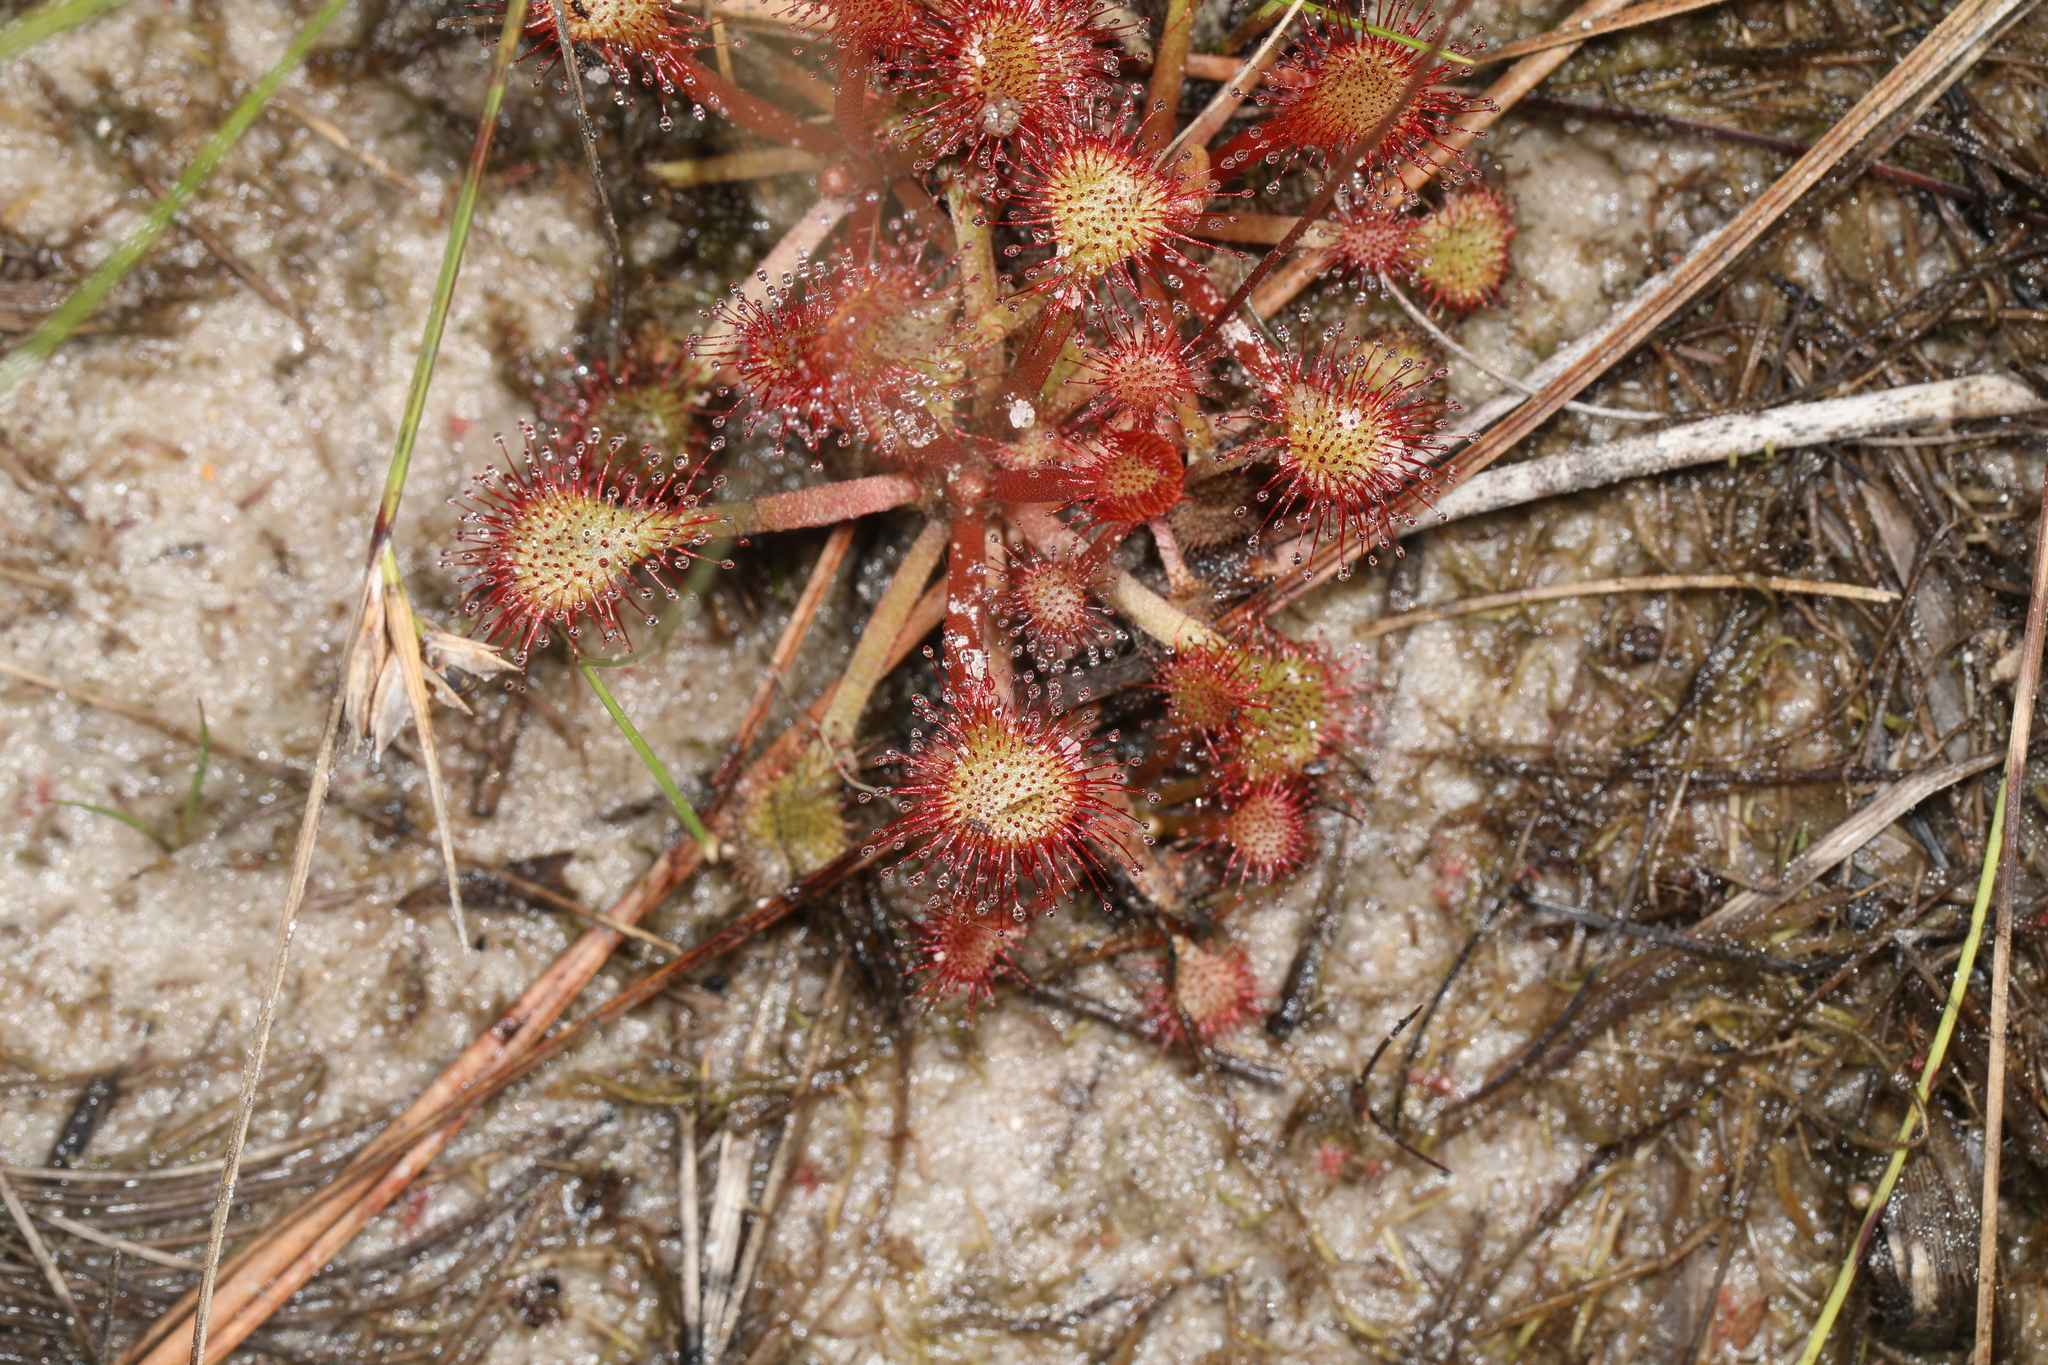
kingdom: Plantae
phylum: Tracheophyta
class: Magnoliopsida
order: Caryophyllales
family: Droseraceae
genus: Drosera
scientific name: Drosera capillaris
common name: Pink sundew
